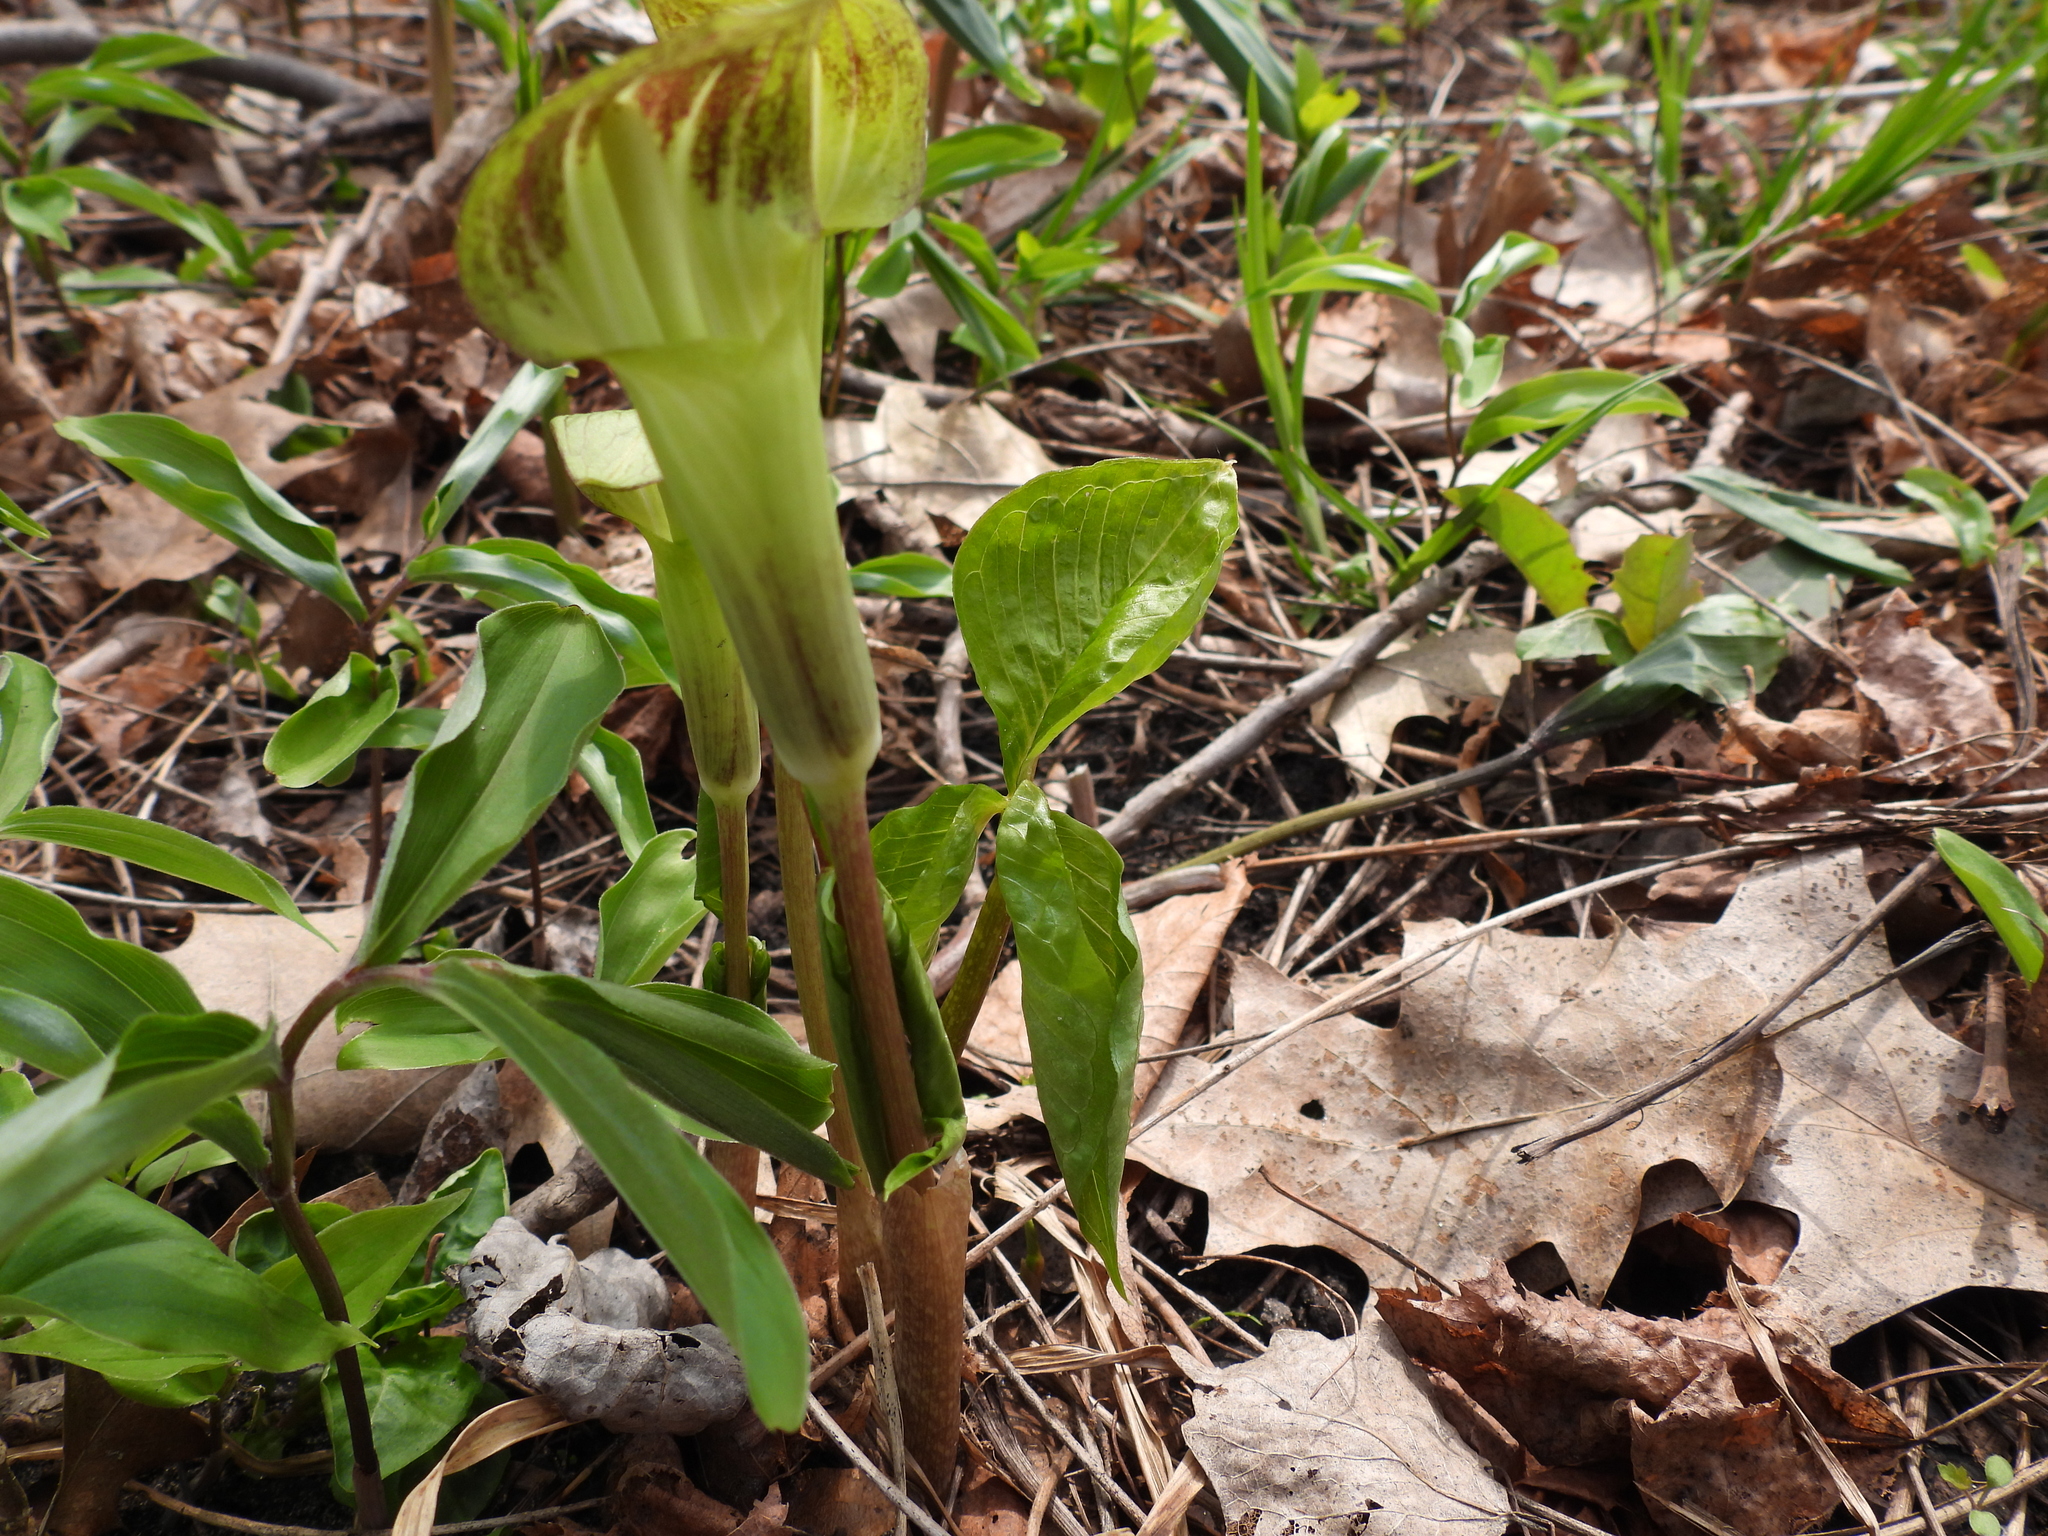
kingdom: Plantae
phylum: Tracheophyta
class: Liliopsida
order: Alismatales
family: Araceae
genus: Arisaema
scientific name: Arisaema triphyllum
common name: Jack-in-the-pulpit
